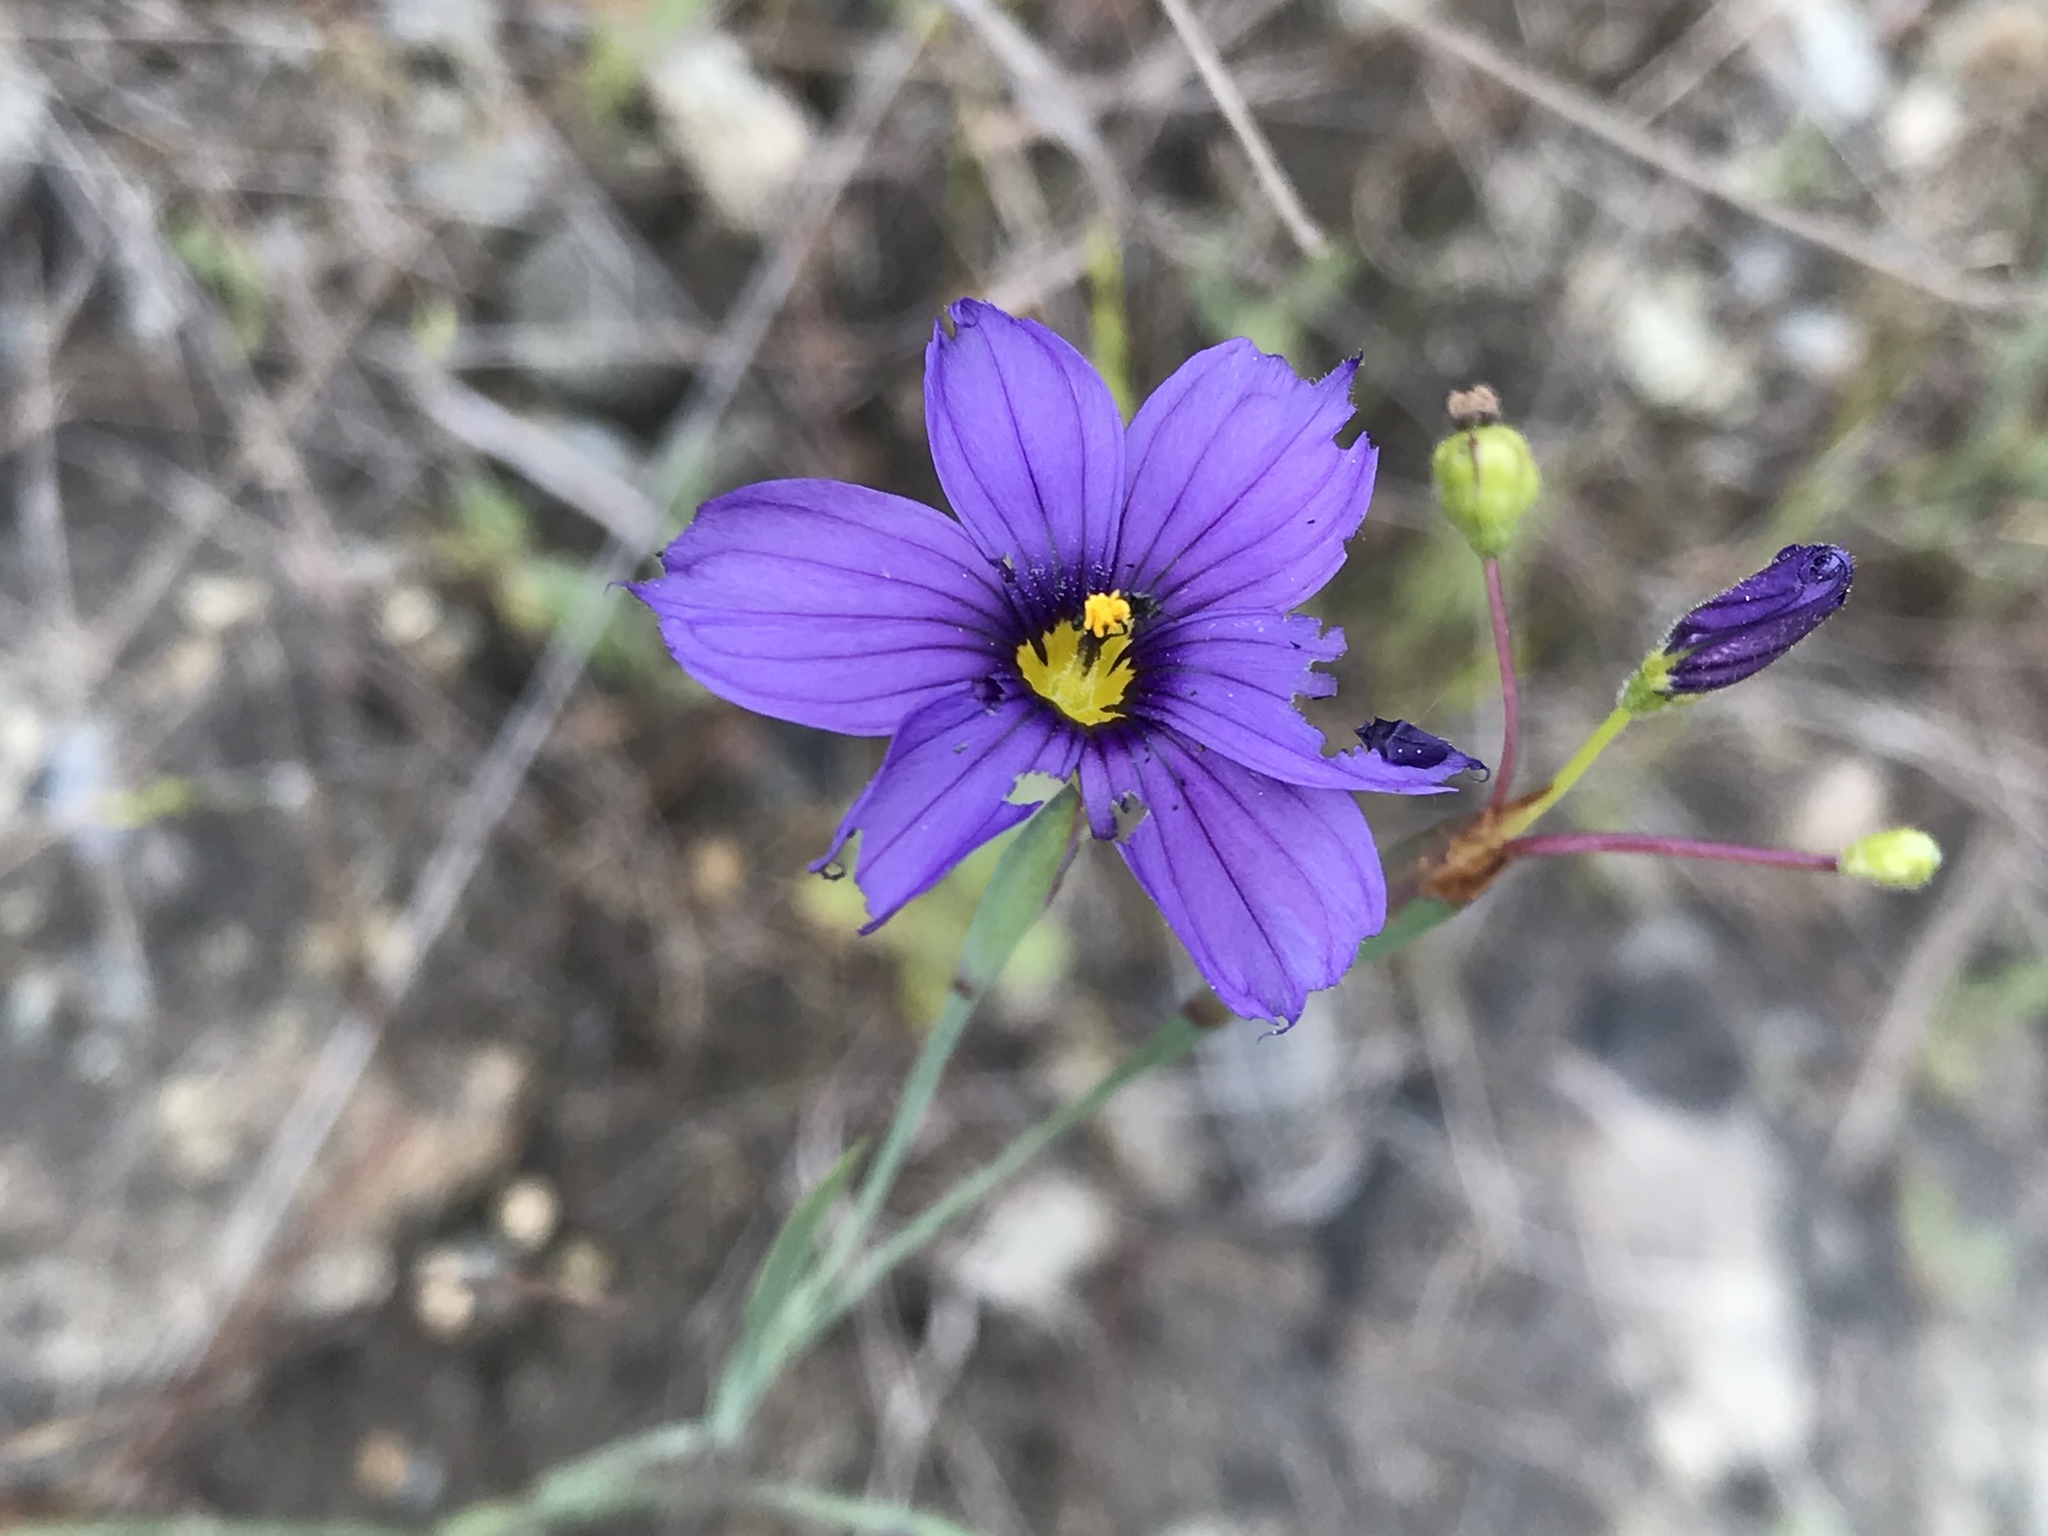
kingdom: Plantae
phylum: Tracheophyta
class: Liliopsida
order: Asparagales
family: Iridaceae
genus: Sisyrinchium
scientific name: Sisyrinchium bellum
